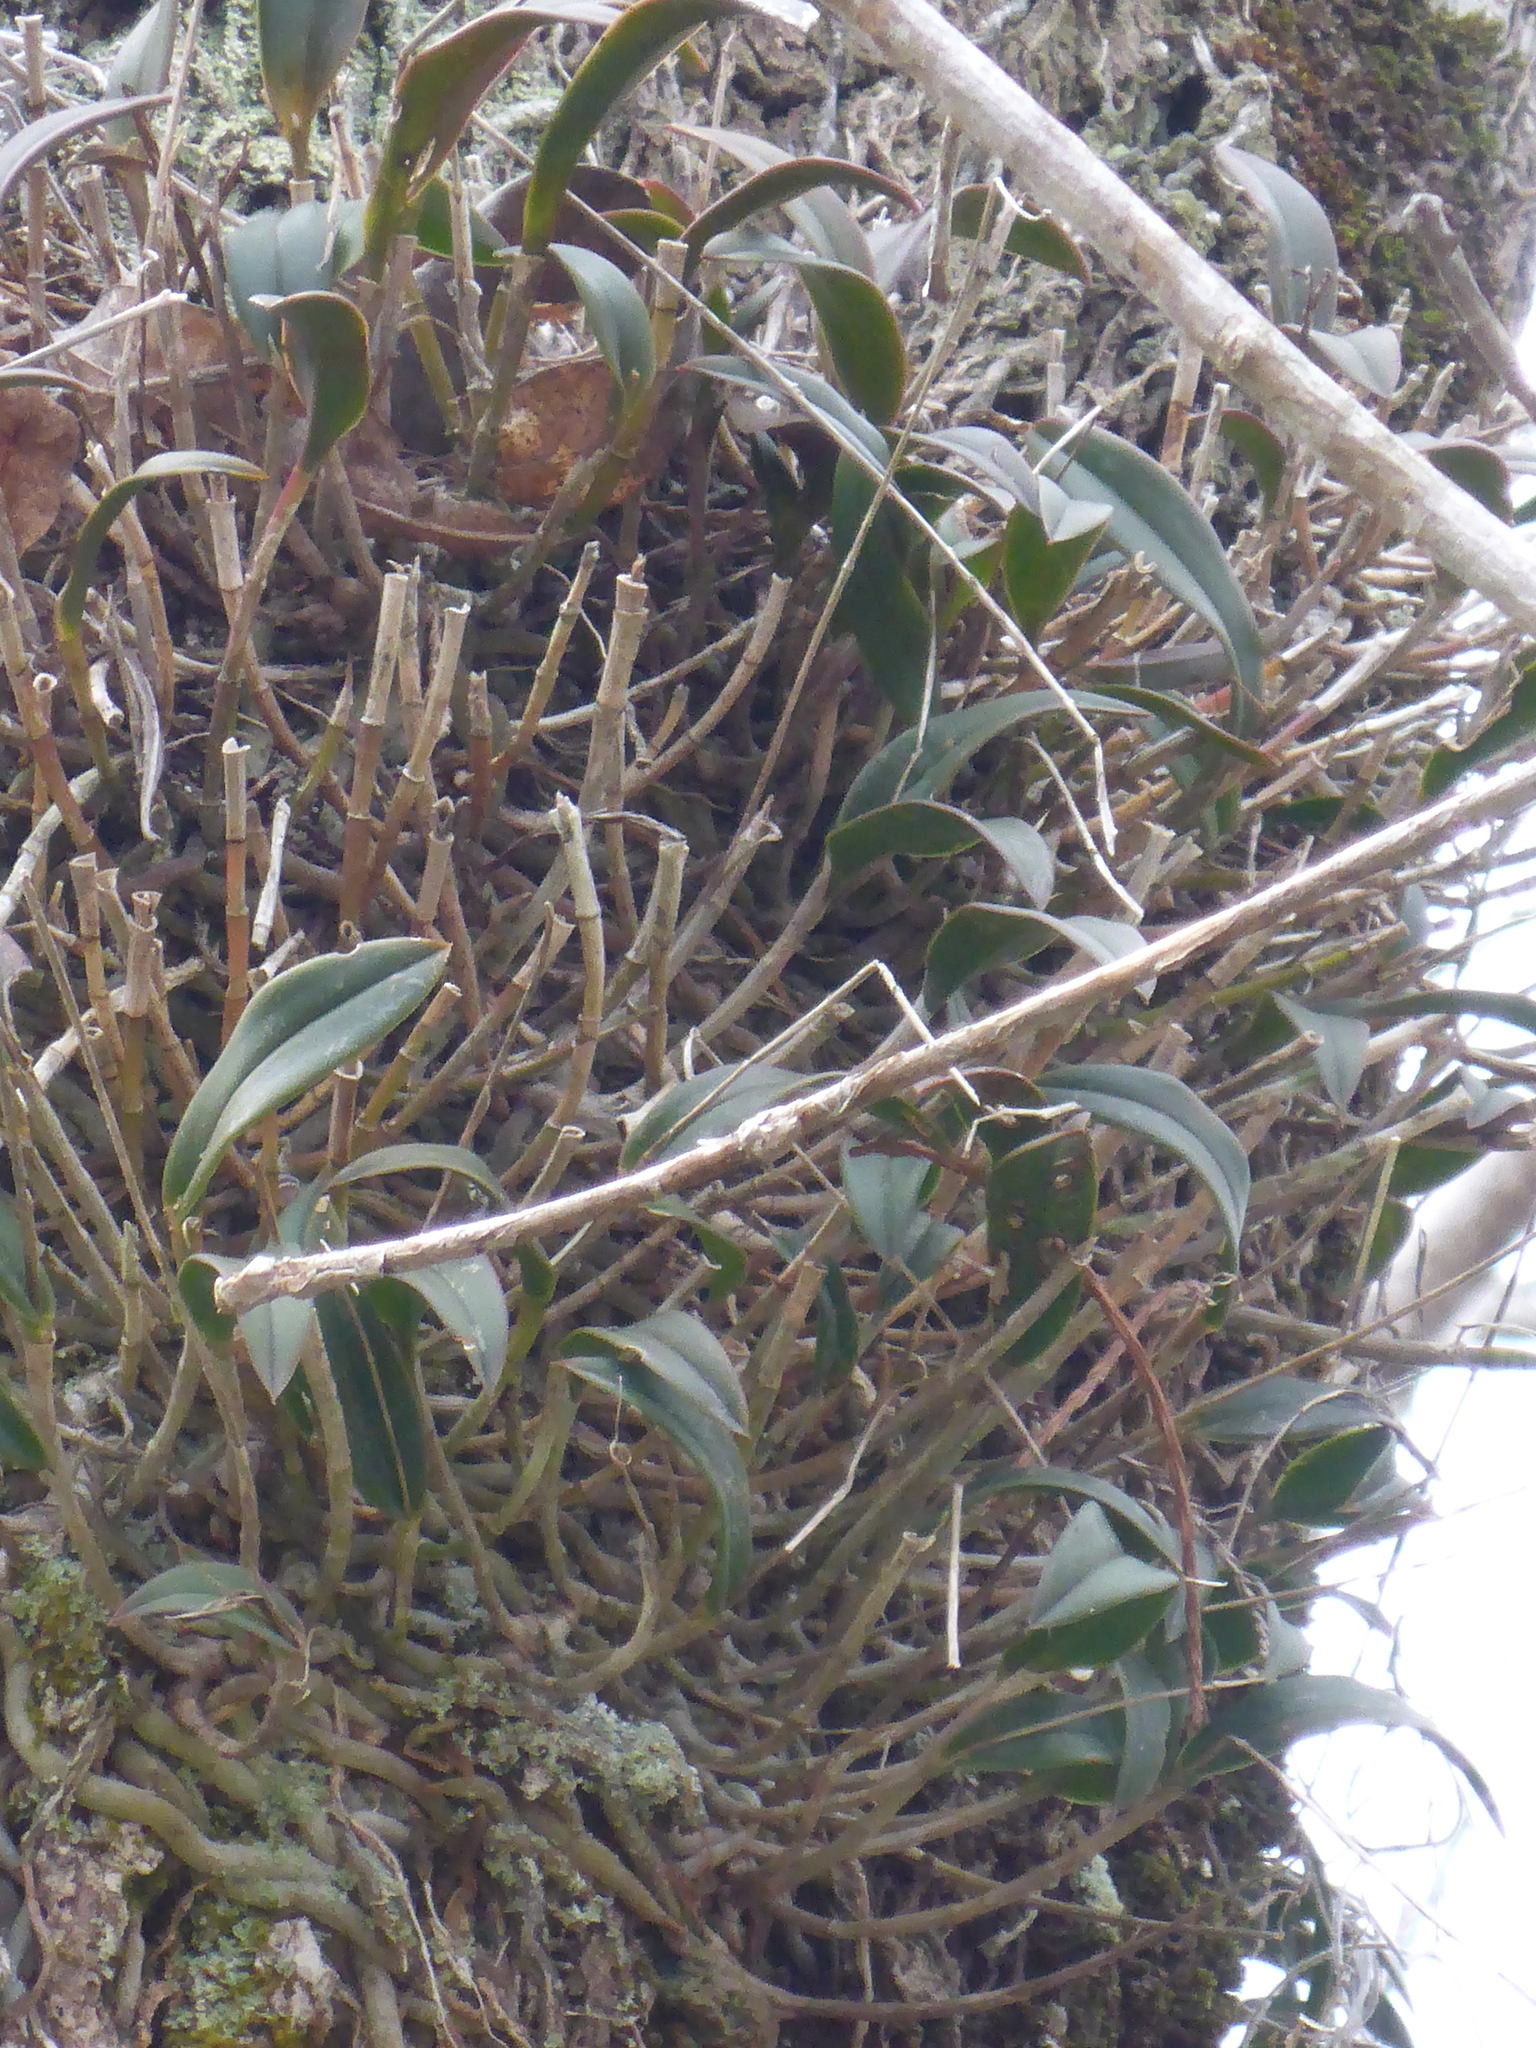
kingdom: Plantae
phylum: Tracheophyta
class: Liliopsida
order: Asparagales
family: Orchidaceae
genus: Epidendrum
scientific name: Epidendrum conopseum
